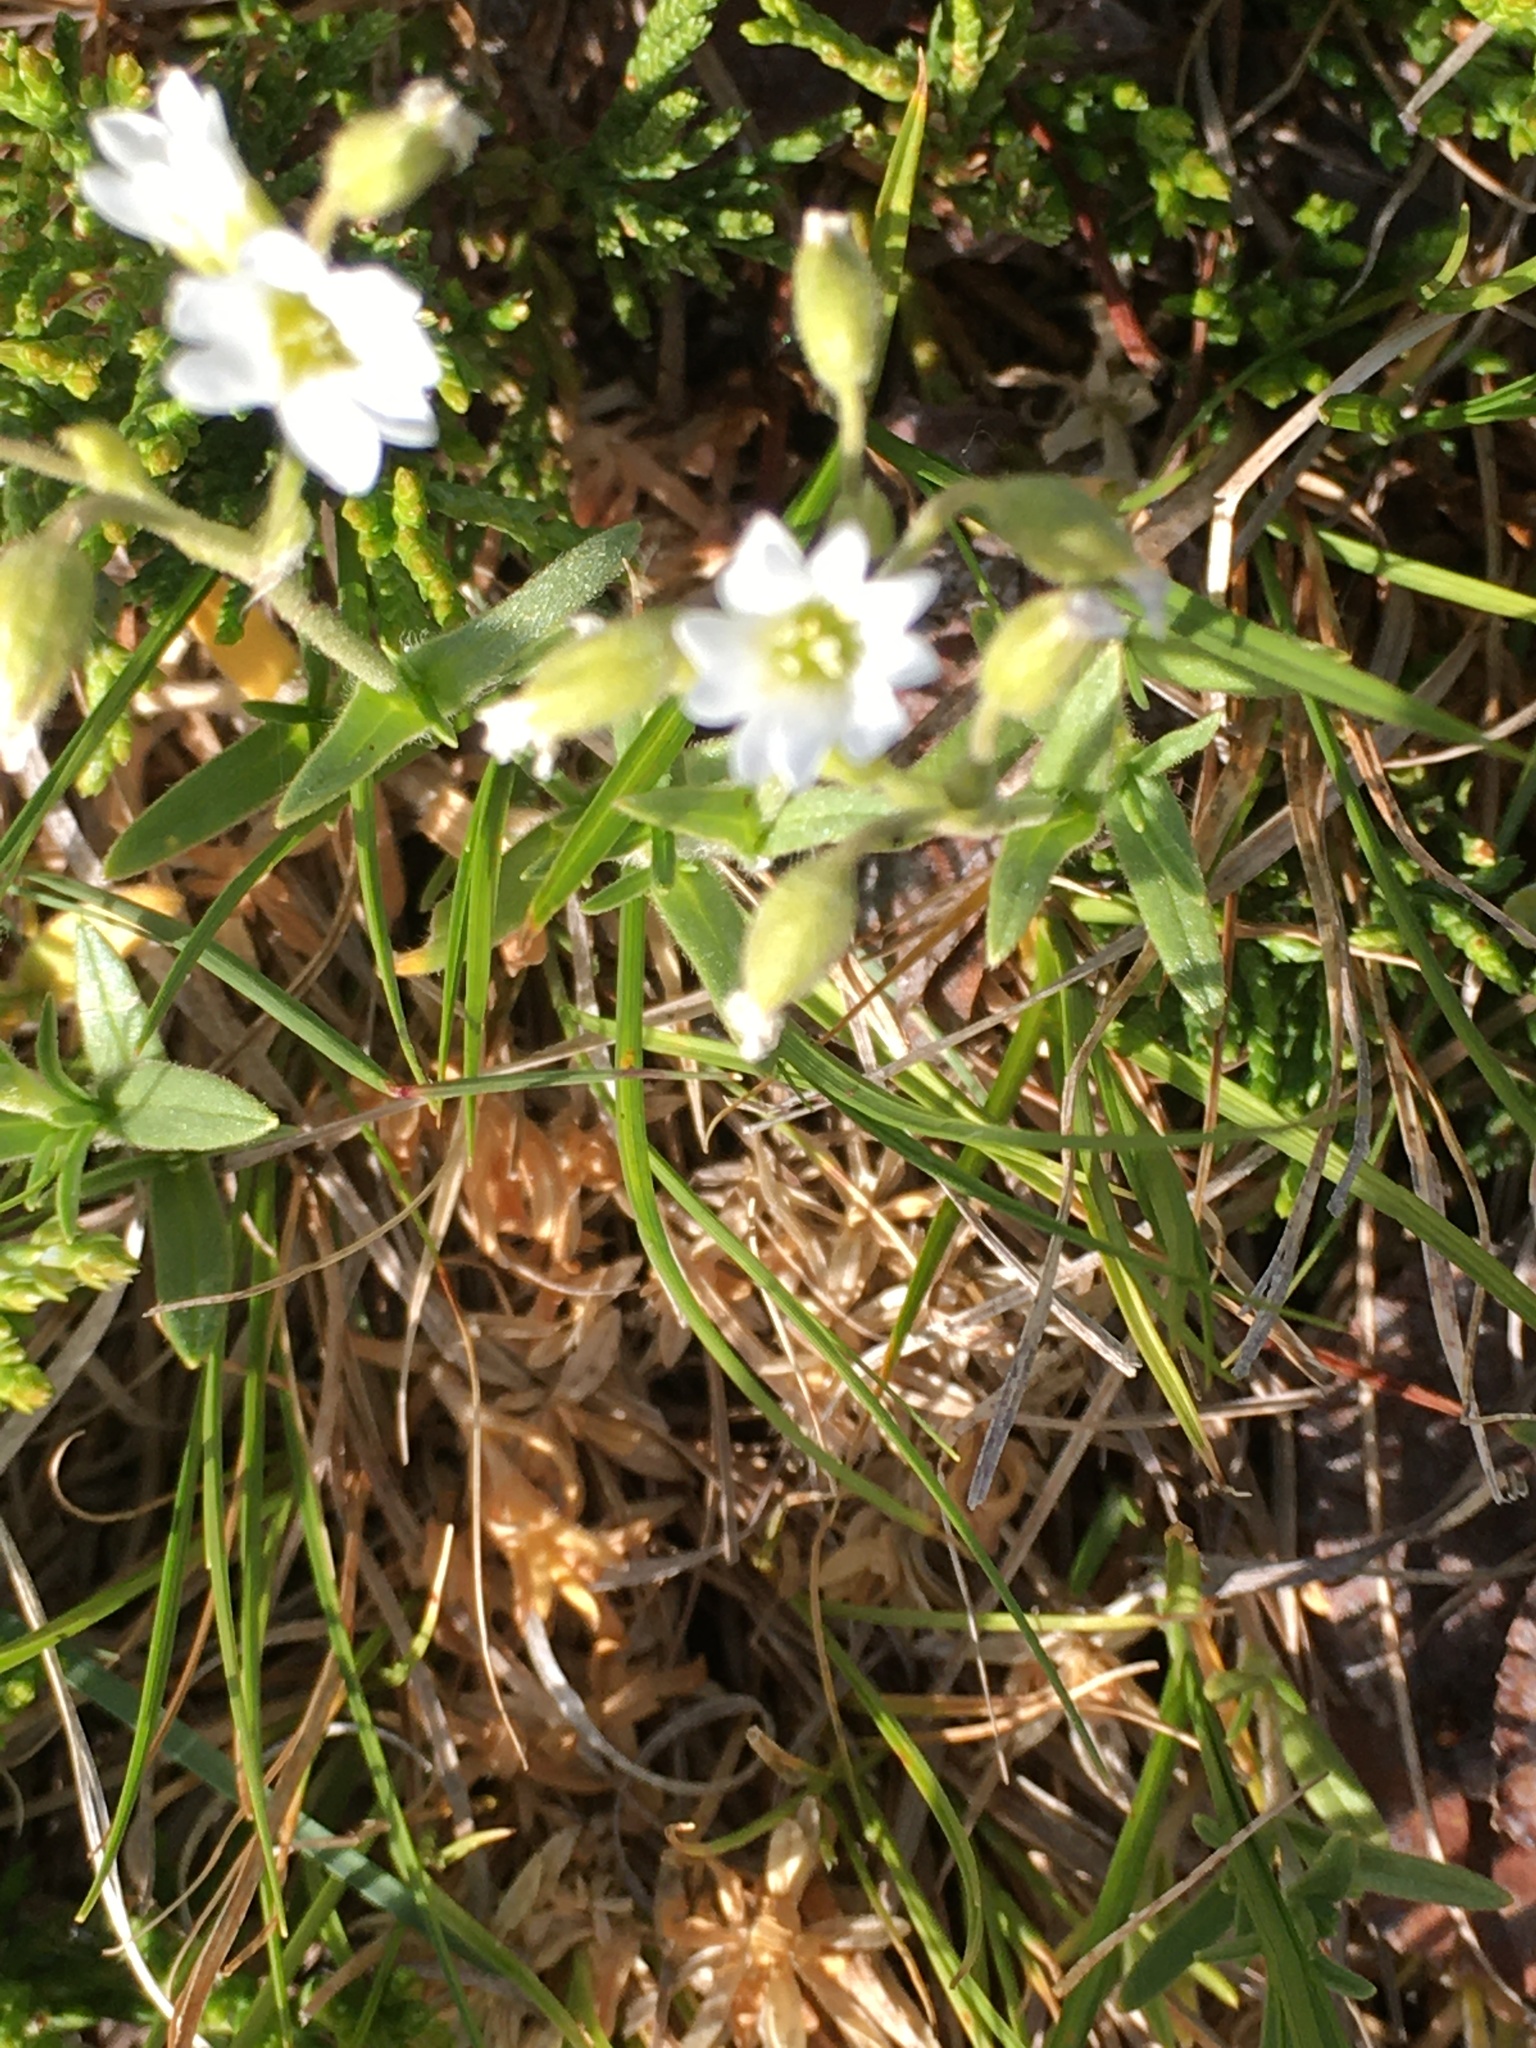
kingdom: Plantae
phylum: Tracheophyta
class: Magnoliopsida
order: Caryophyllales
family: Caryophyllaceae
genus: Cerastium
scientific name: Cerastium arvense
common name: Field mouse-ear
